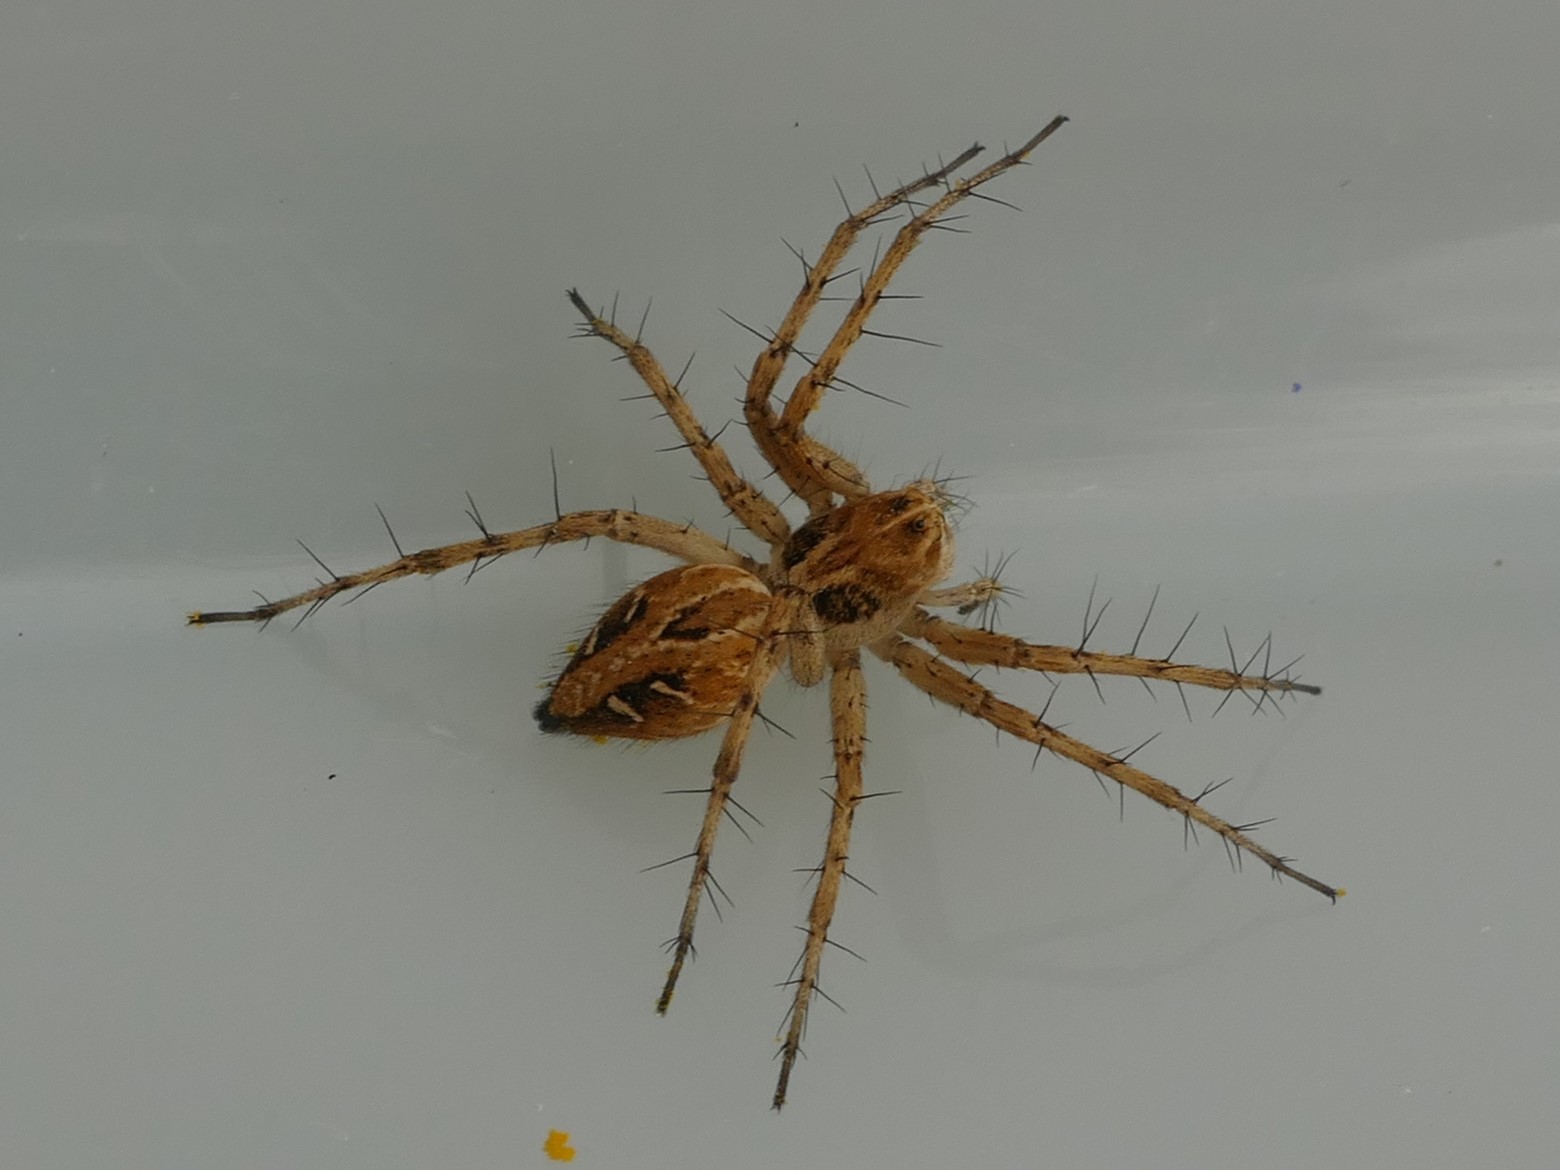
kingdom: Animalia
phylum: Arthropoda
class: Arachnida
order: Araneae
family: Oxyopidae
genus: Oxyopes
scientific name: Oxyopes heterophthalmus
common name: Lynx spider
